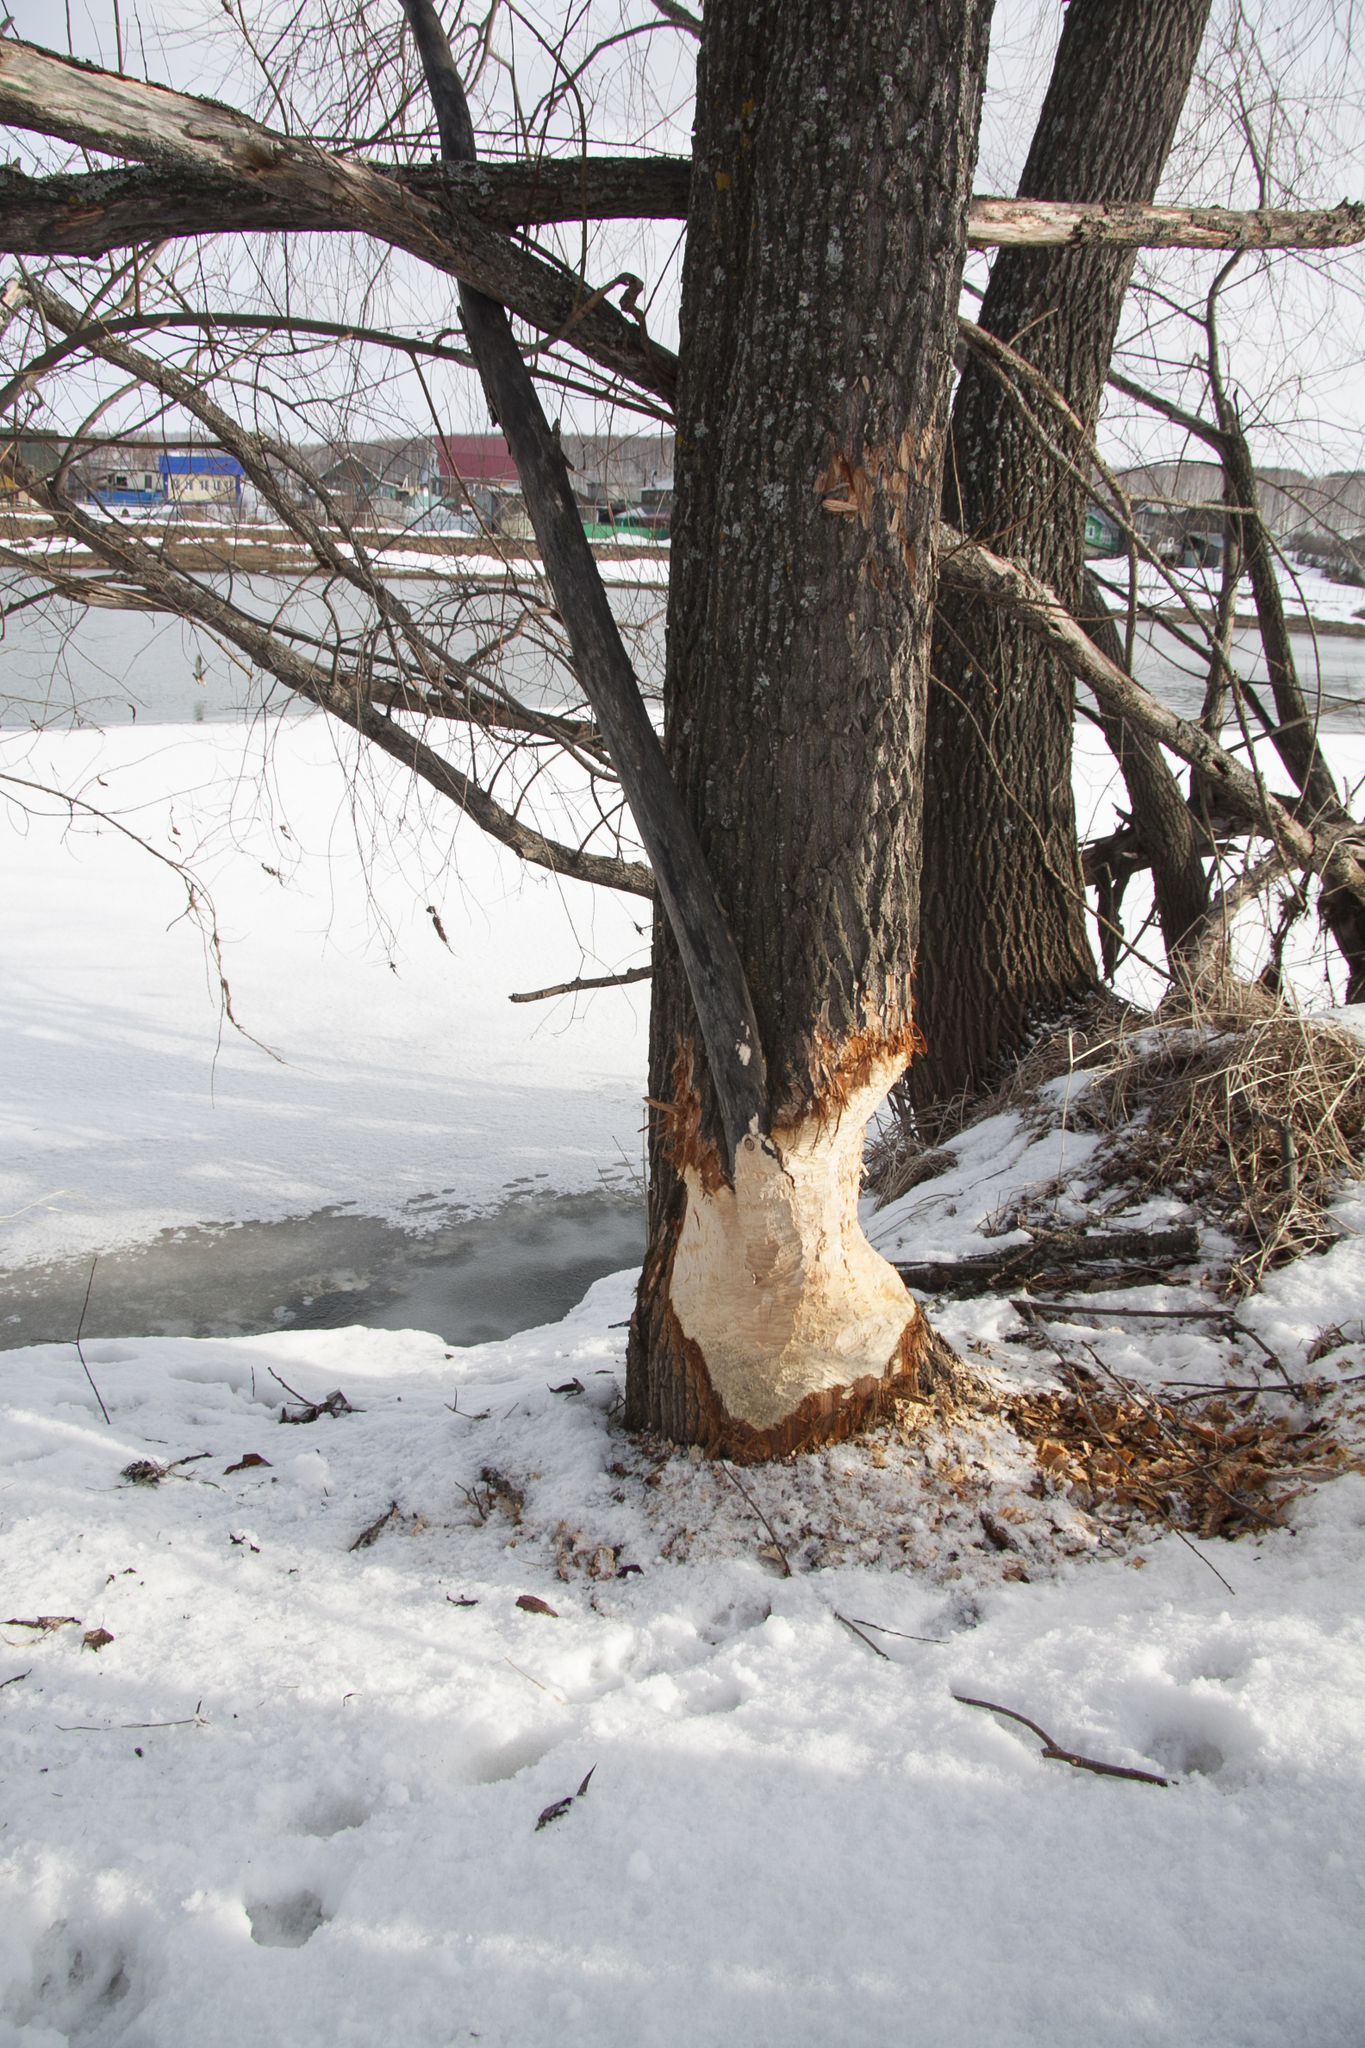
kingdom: Animalia
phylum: Chordata
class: Mammalia
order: Rodentia
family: Castoridae
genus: Castor
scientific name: Castor fiber
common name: Eurasian beaver
